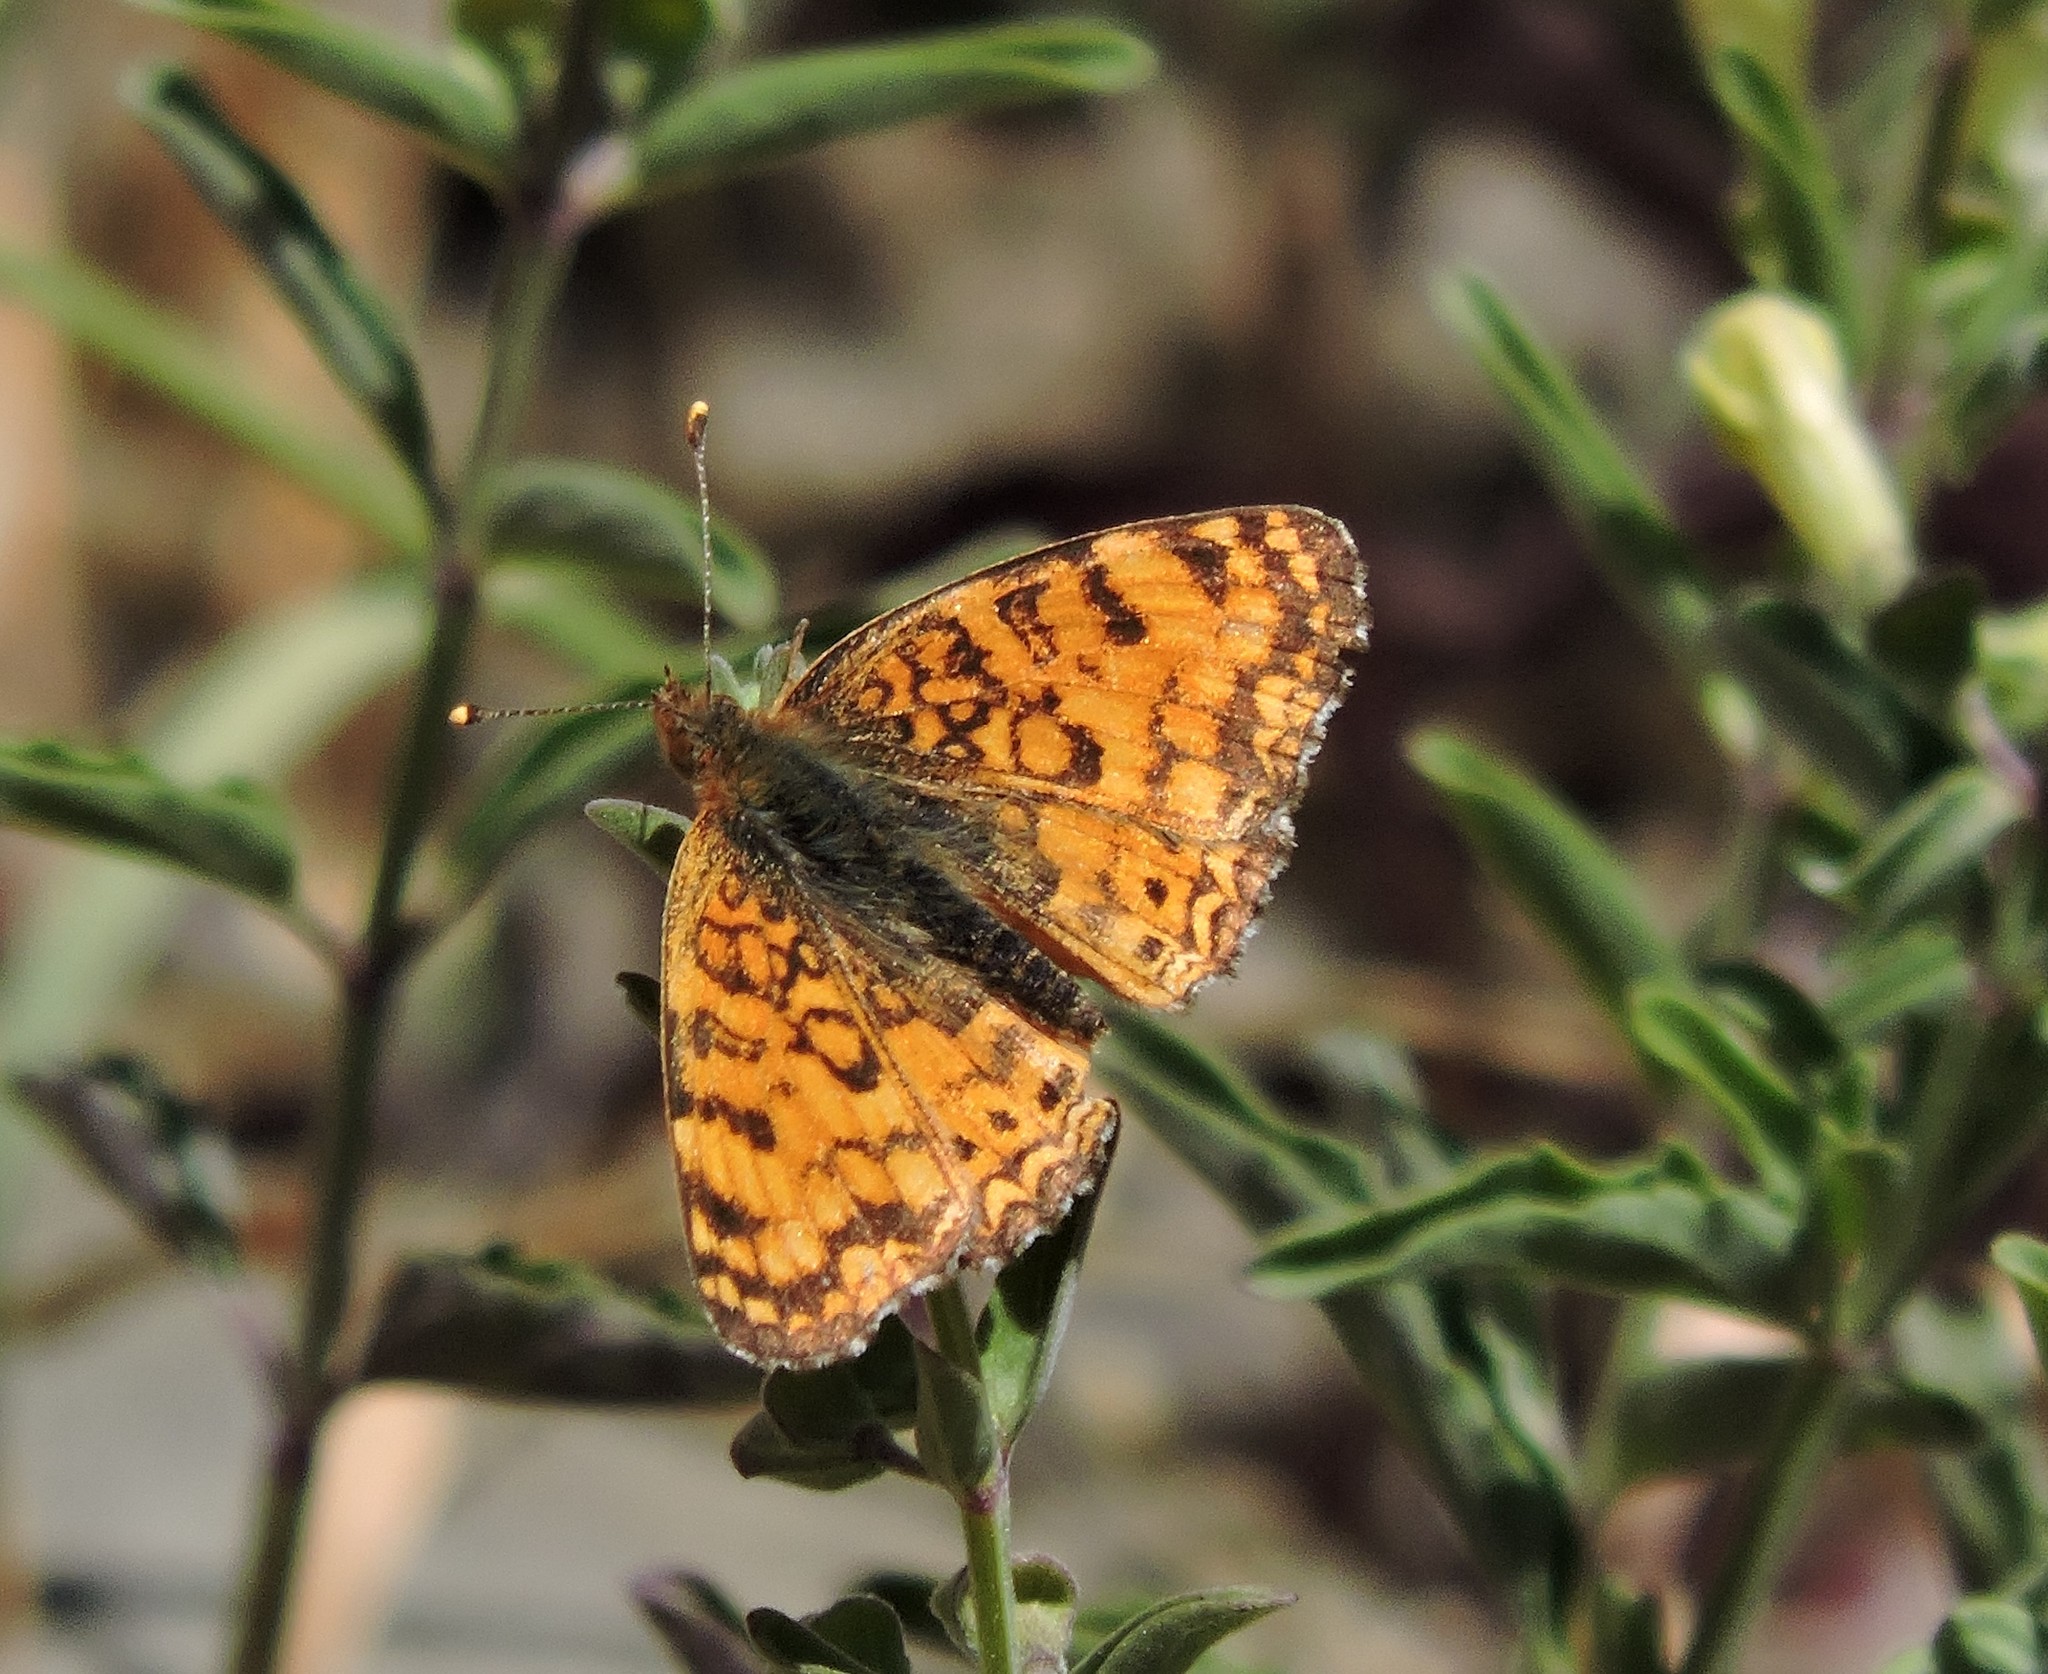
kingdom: Animalia
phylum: Arthropoda
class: Insecta
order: Lepidoptera
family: Nymphalidae
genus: Eresia
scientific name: Eresia aveyrona
